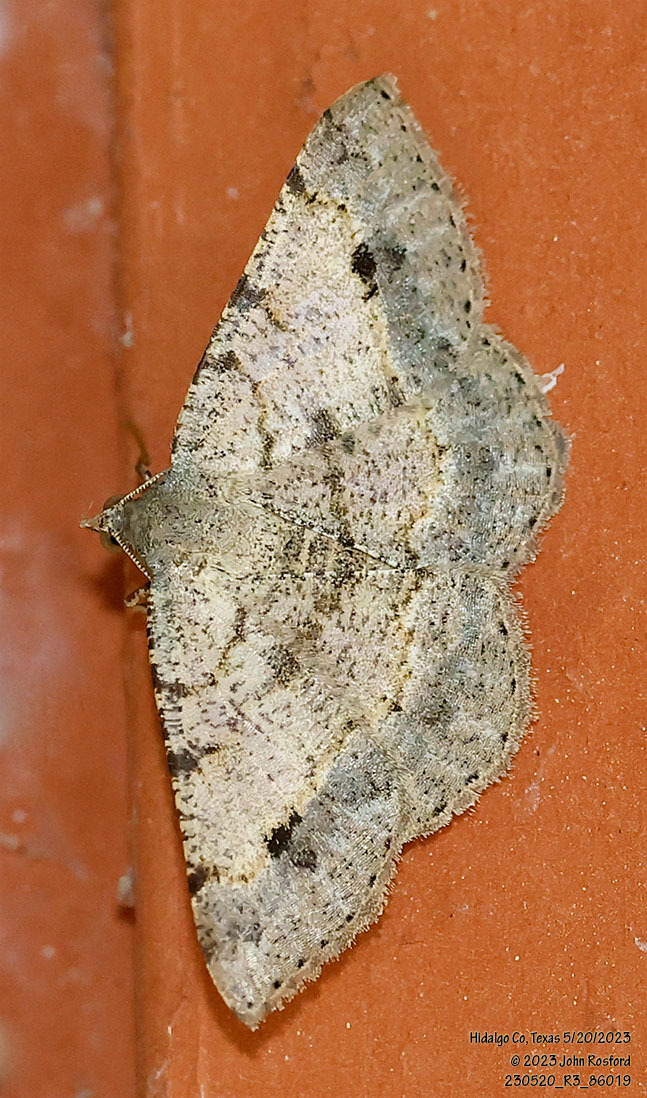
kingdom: Animalia
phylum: Arthropoda
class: Insecta
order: Lepidoptera
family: Geometridae
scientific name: Geometridae
